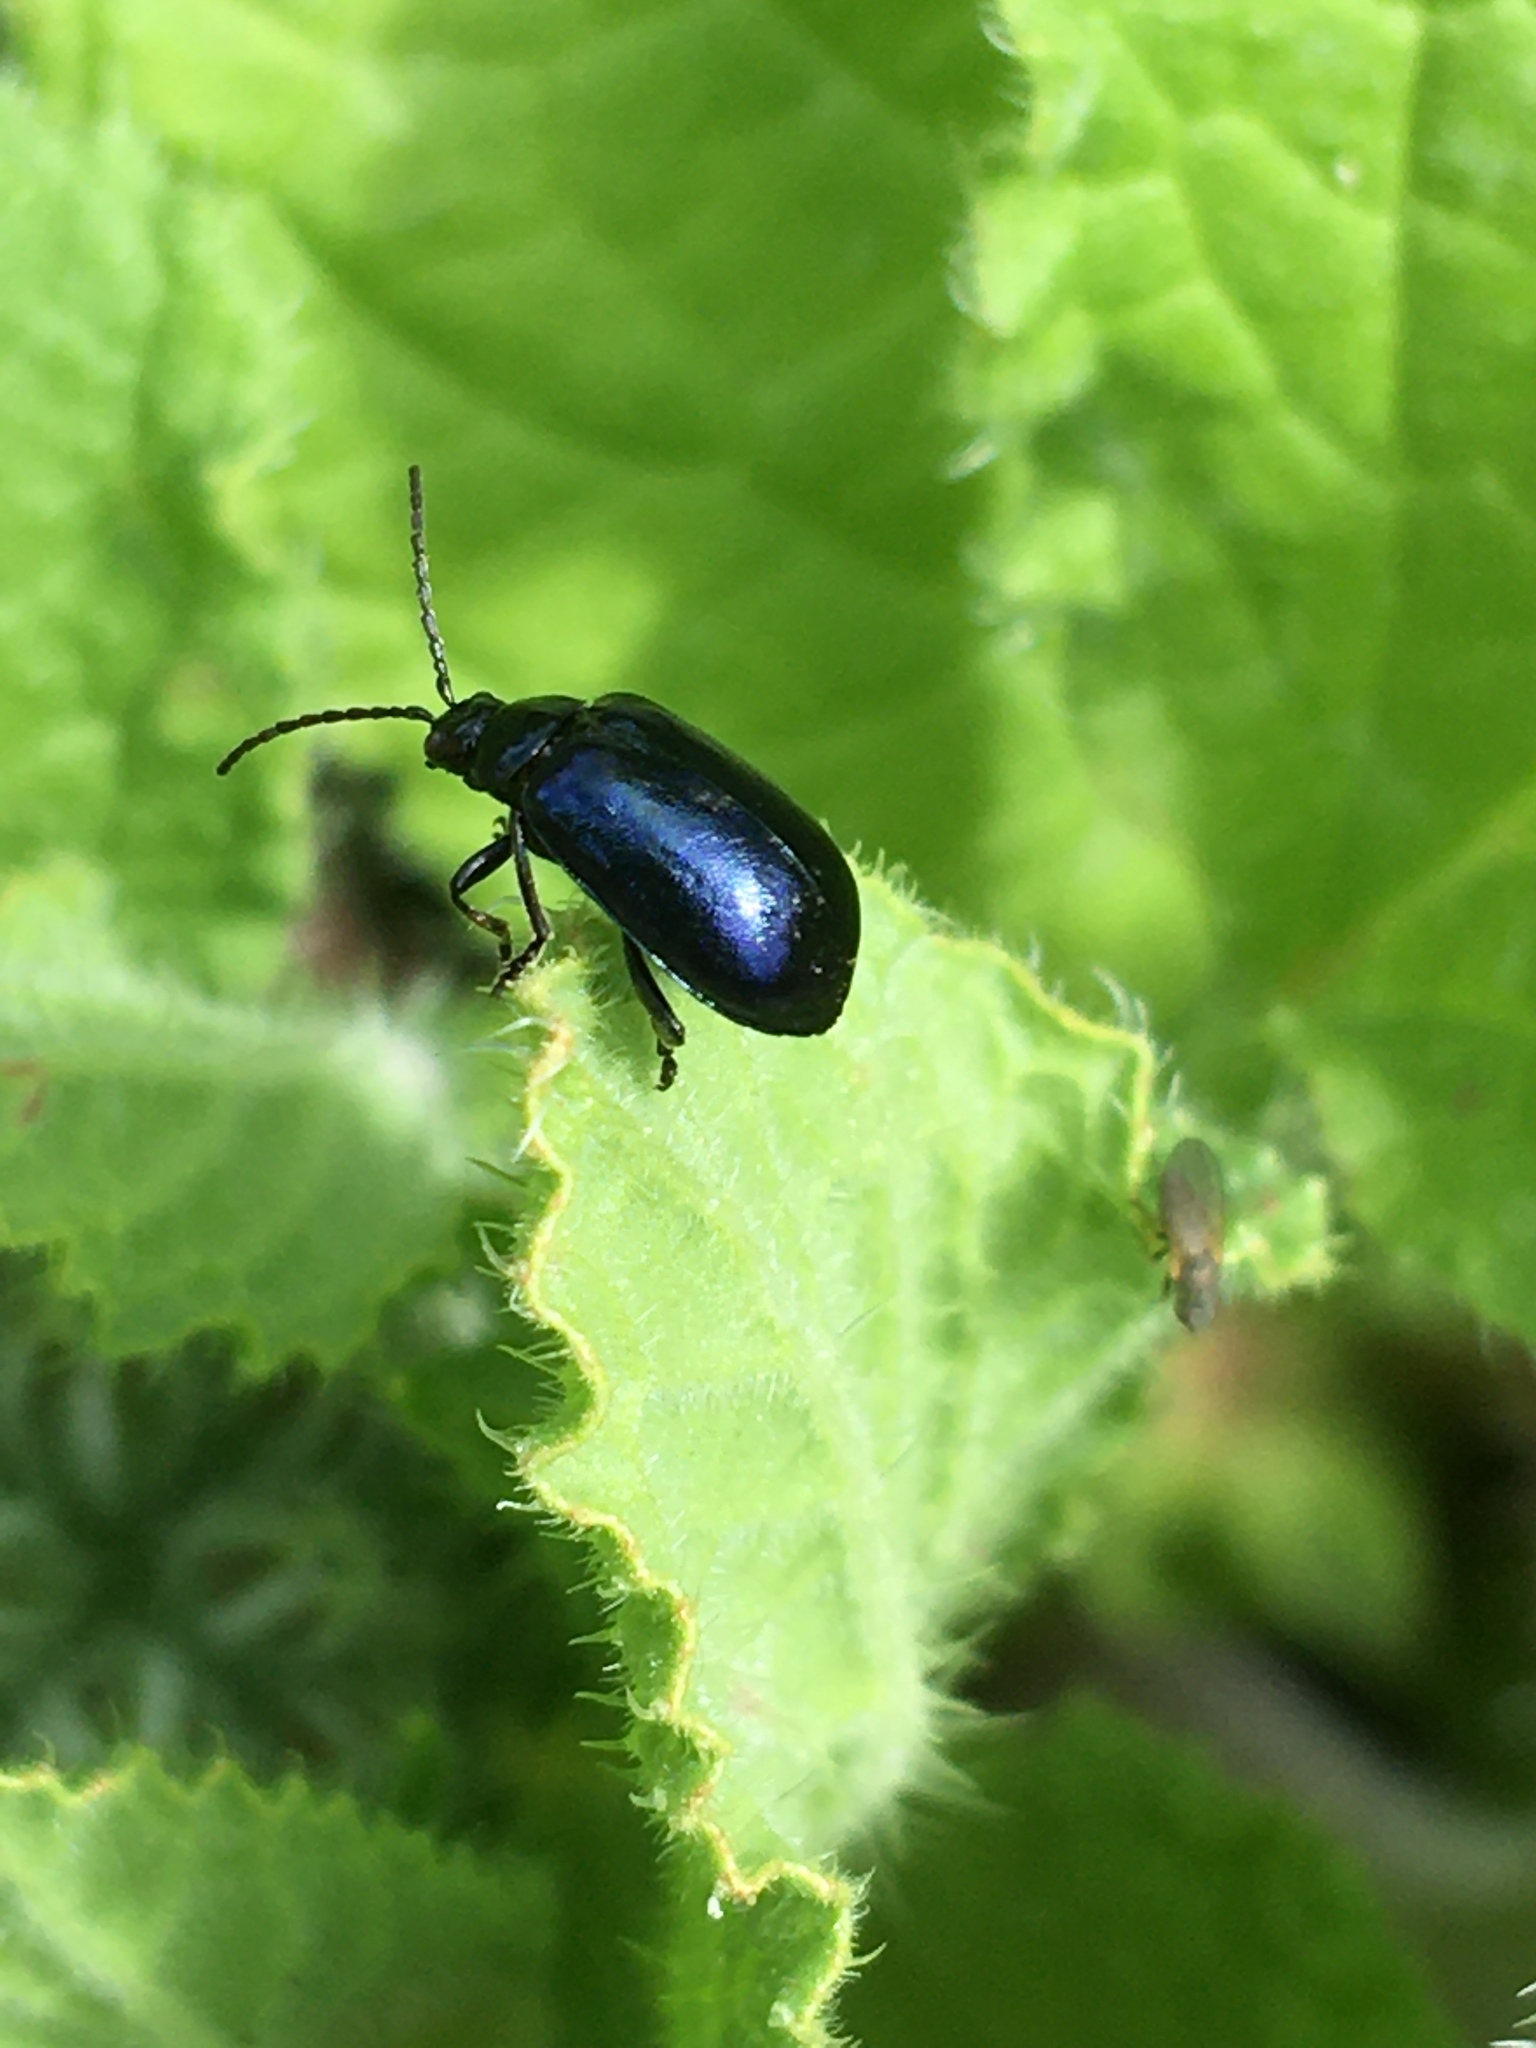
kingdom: Animalia
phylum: Arthropoda
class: Insecta
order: Coleoptera
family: Chrysomelidae
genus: Agelastica
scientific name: Agelastica alni
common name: Alder leaf beetle
